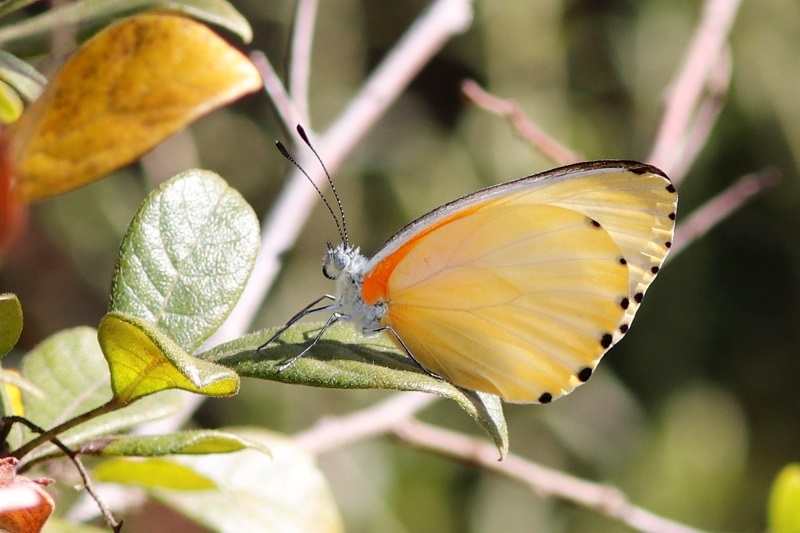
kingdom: Animalia
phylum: Arthropoda
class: Insecta
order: Lepidoptera
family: Pieridae
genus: Mylothris
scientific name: Mylothris agathina
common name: Eastern dotted border
